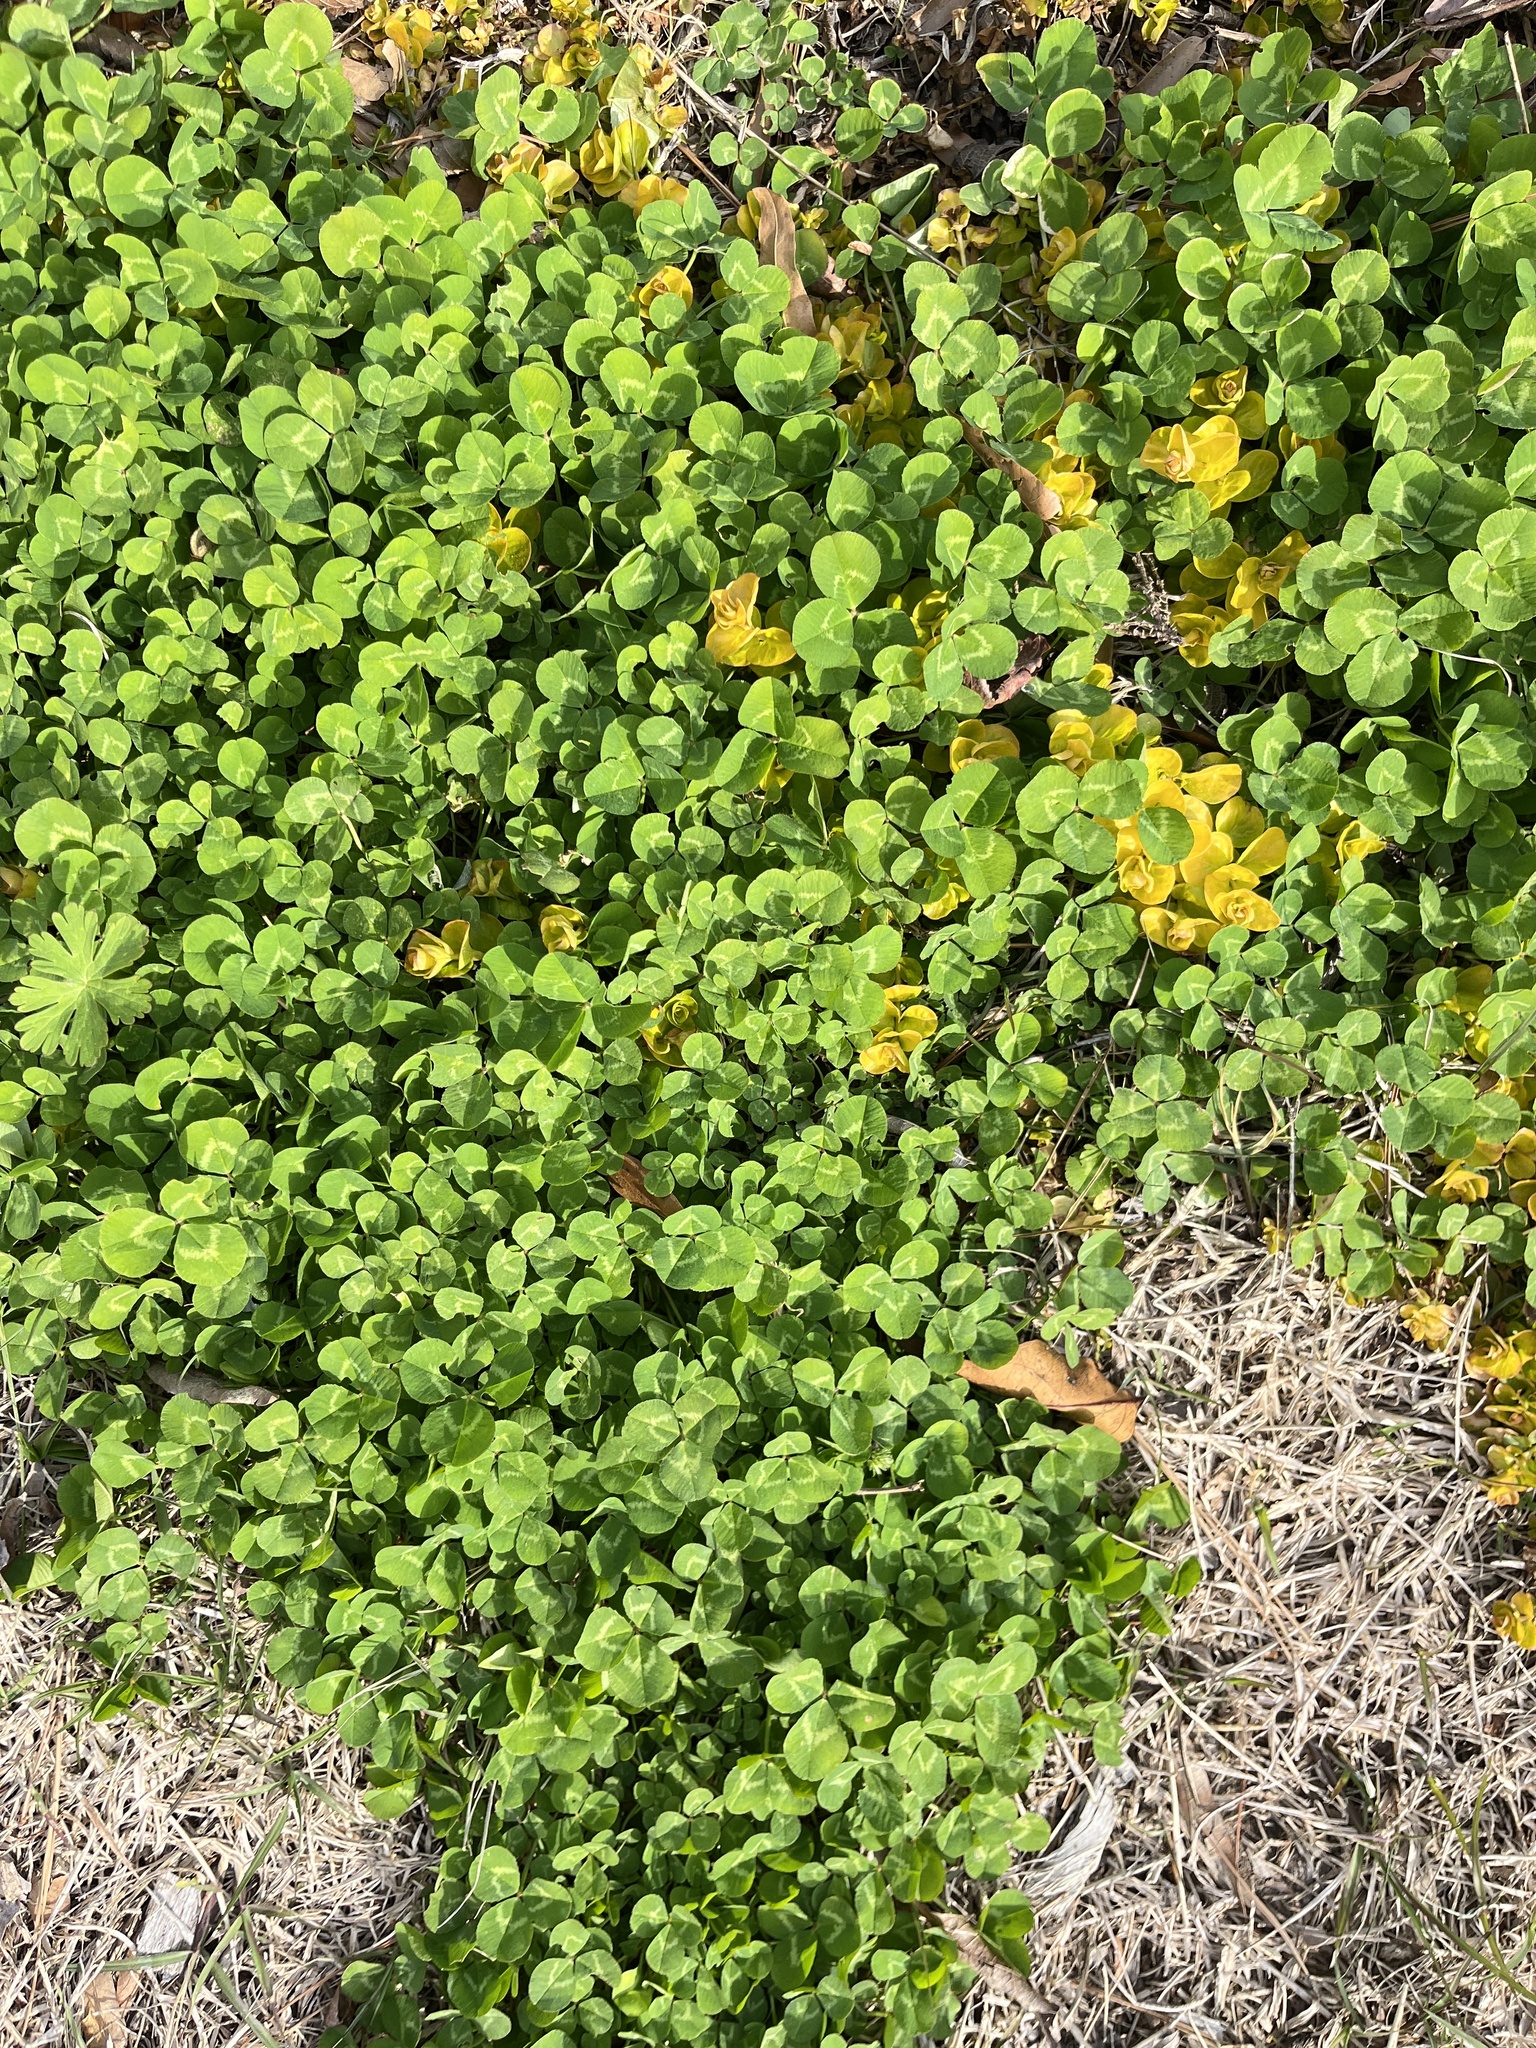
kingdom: Plantae
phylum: Tracheophyta
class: Magnoliopsida
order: Fabales
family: Fabaceae
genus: Trifolium
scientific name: Trifolium repens
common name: White clover
